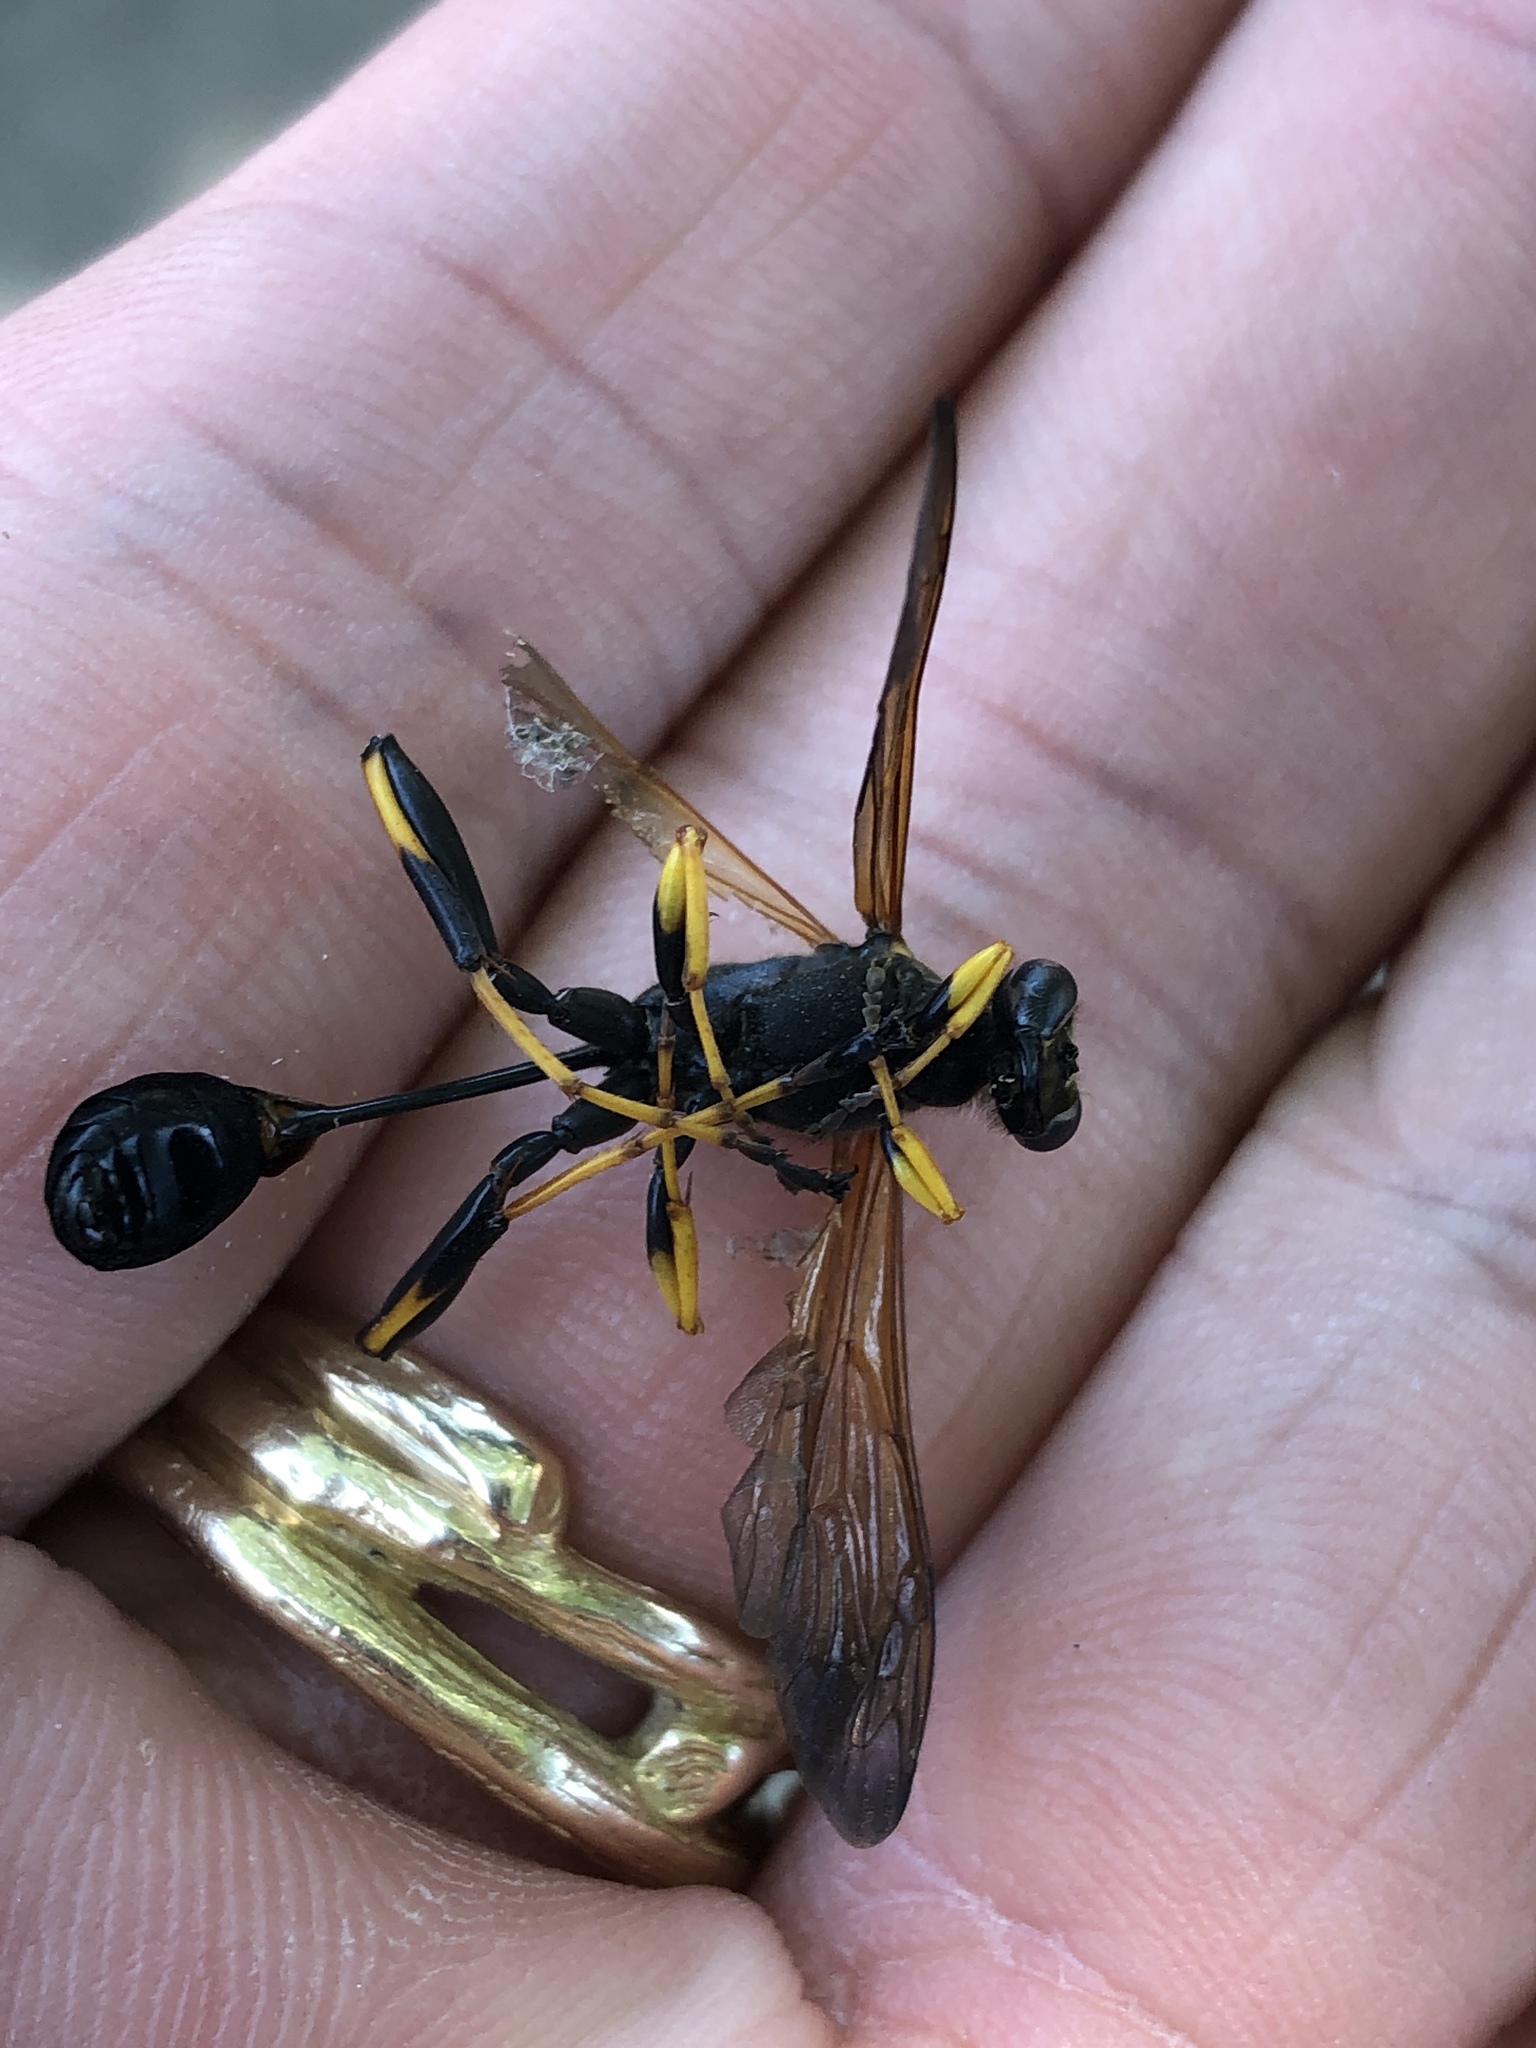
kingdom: Animalia
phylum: Arthropoda
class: Insecta
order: Hymenoptera
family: Sphecidae
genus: Sceliphron
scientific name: Sceliphron caementarium
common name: Mud dauber
